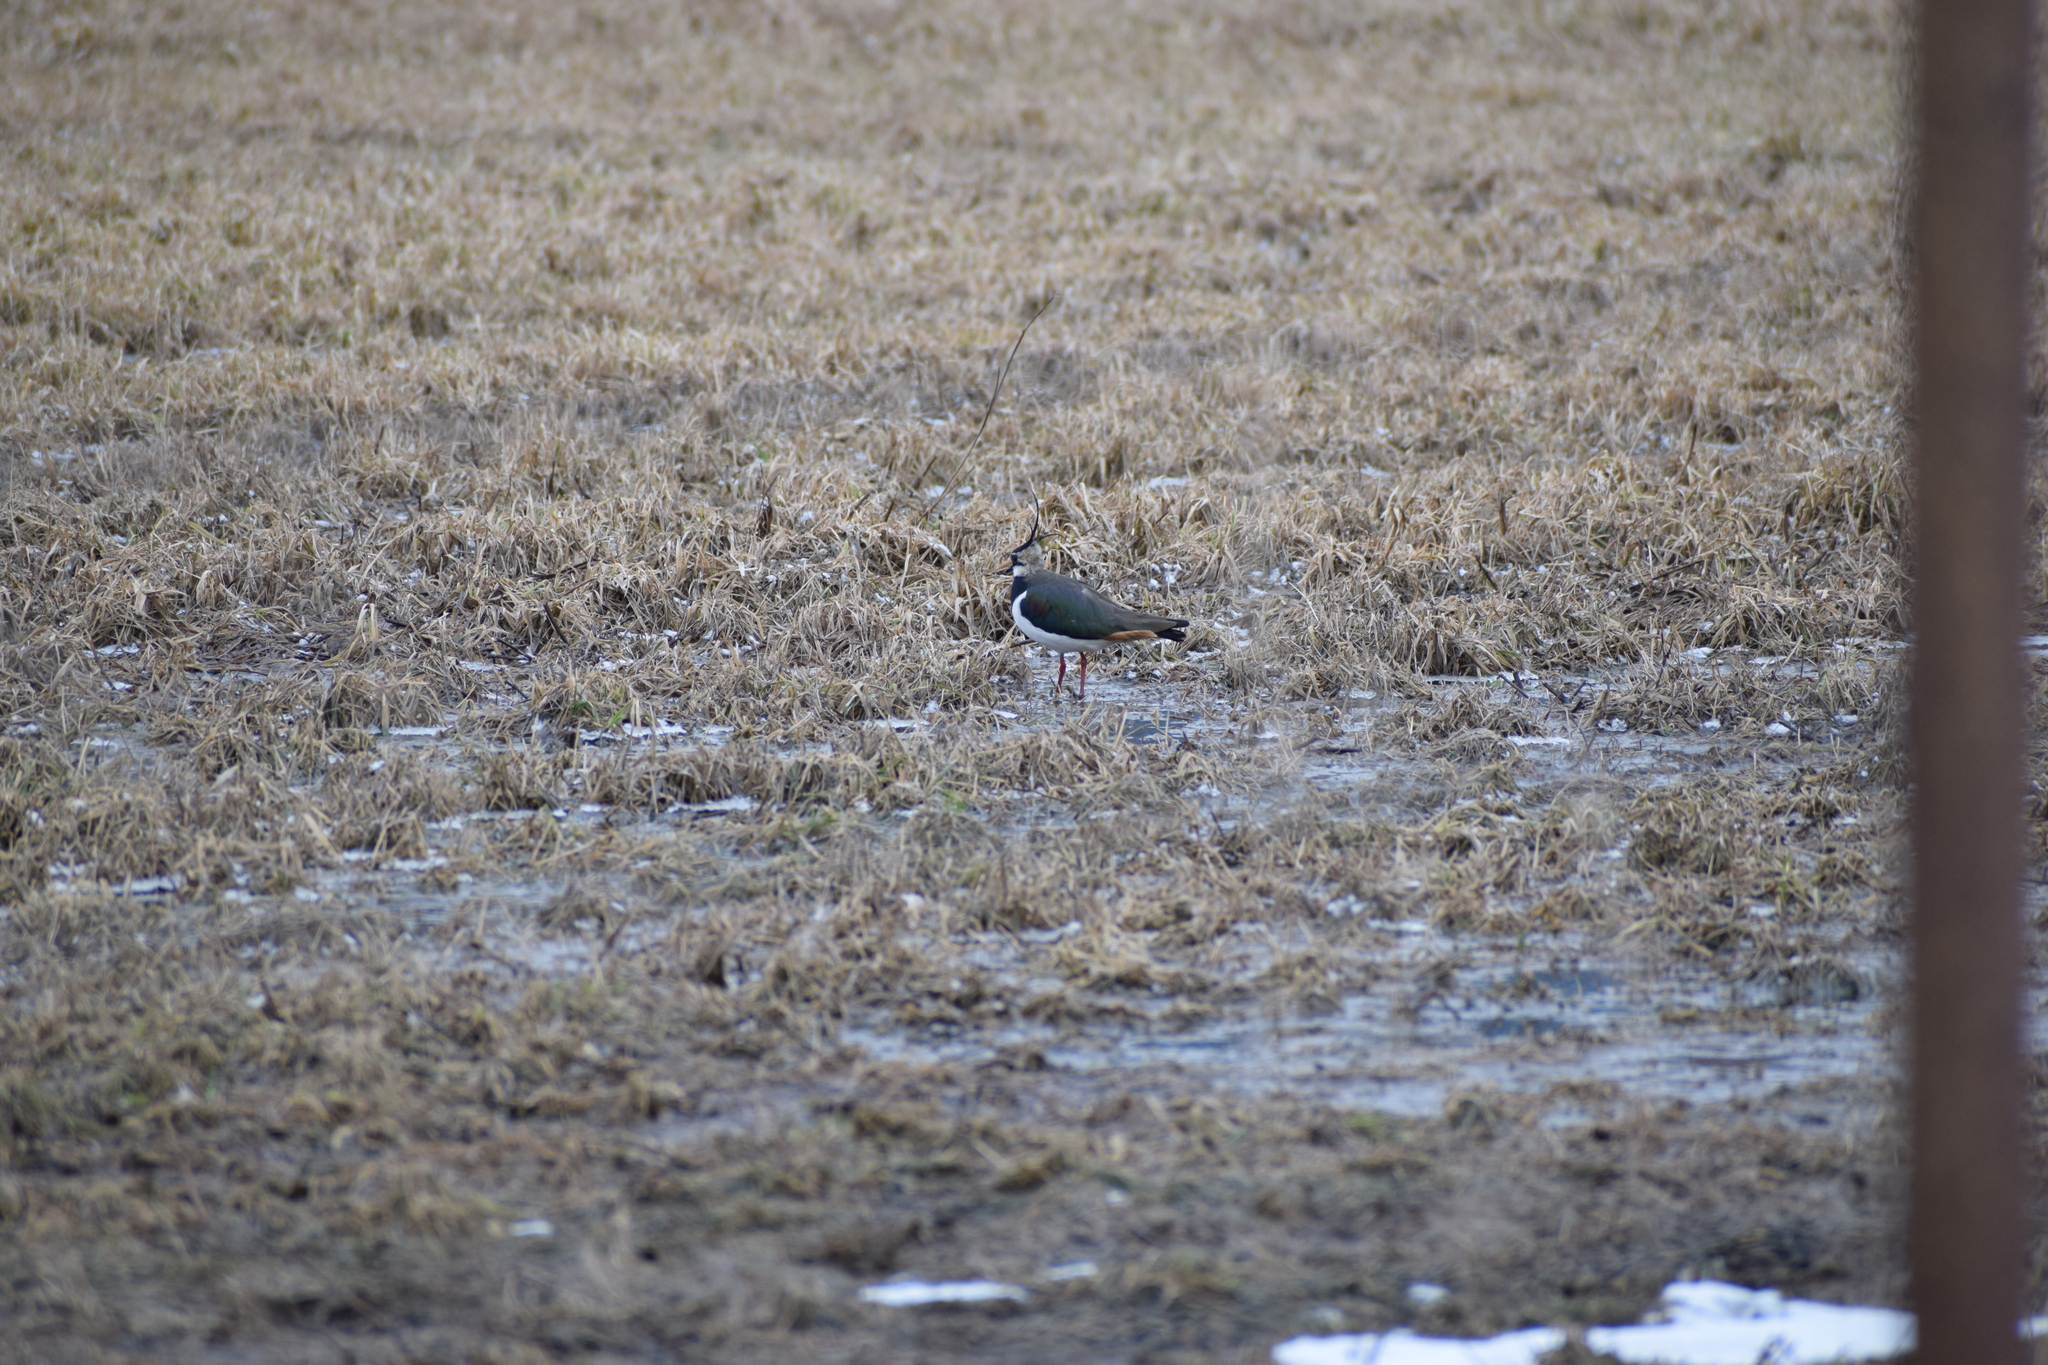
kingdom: Animalia
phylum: Chordata
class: Aves
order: Charadriiformes
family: Charadriidae
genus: Vanellus
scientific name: Vanellus vanellus
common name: Northern lapwing
